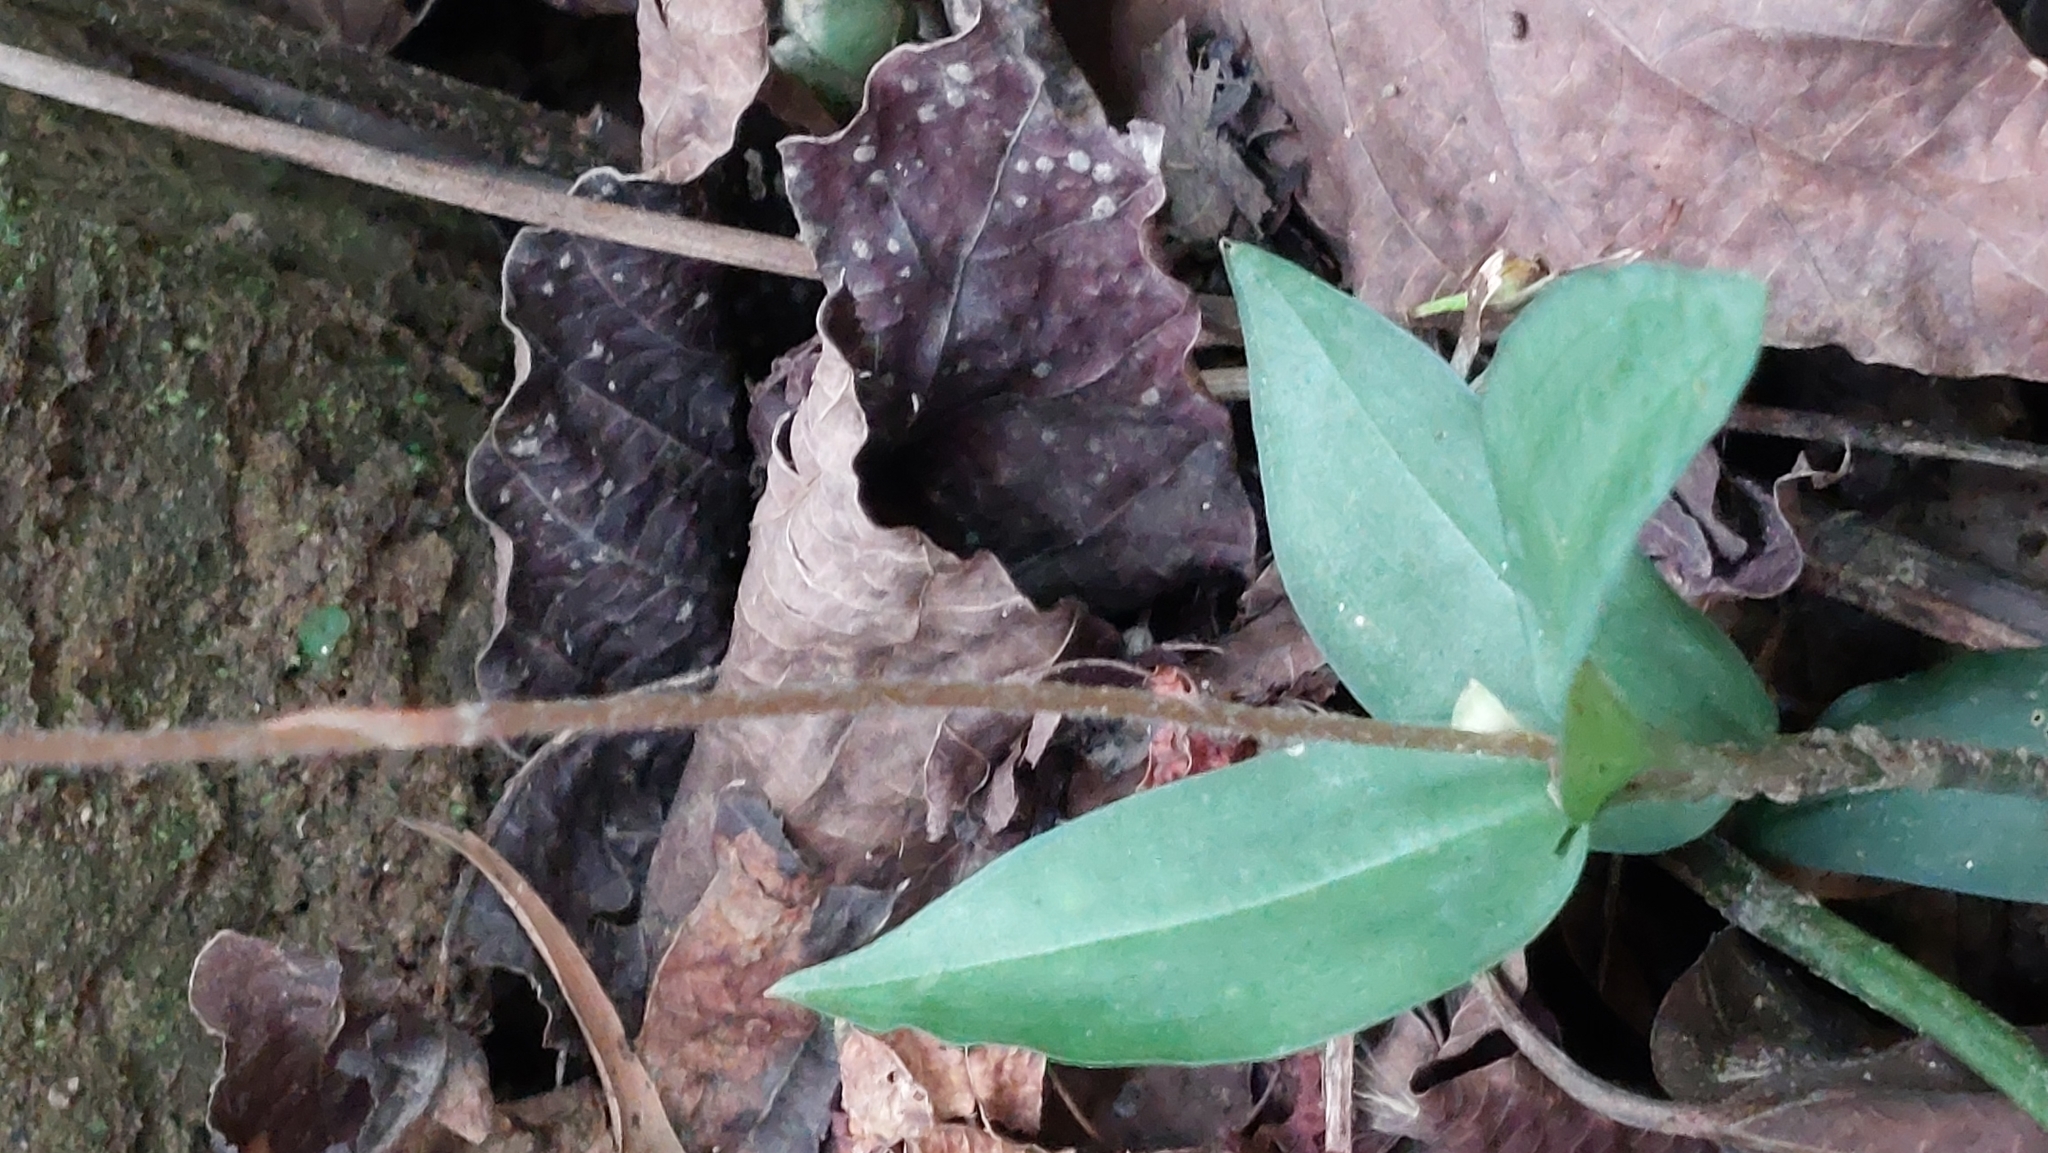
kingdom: Plantae
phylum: Tracheophyta
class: Liliopsida
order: Asparagales
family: Orchidaceae
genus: Zeuxine
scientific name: Zeuxine nervosa
